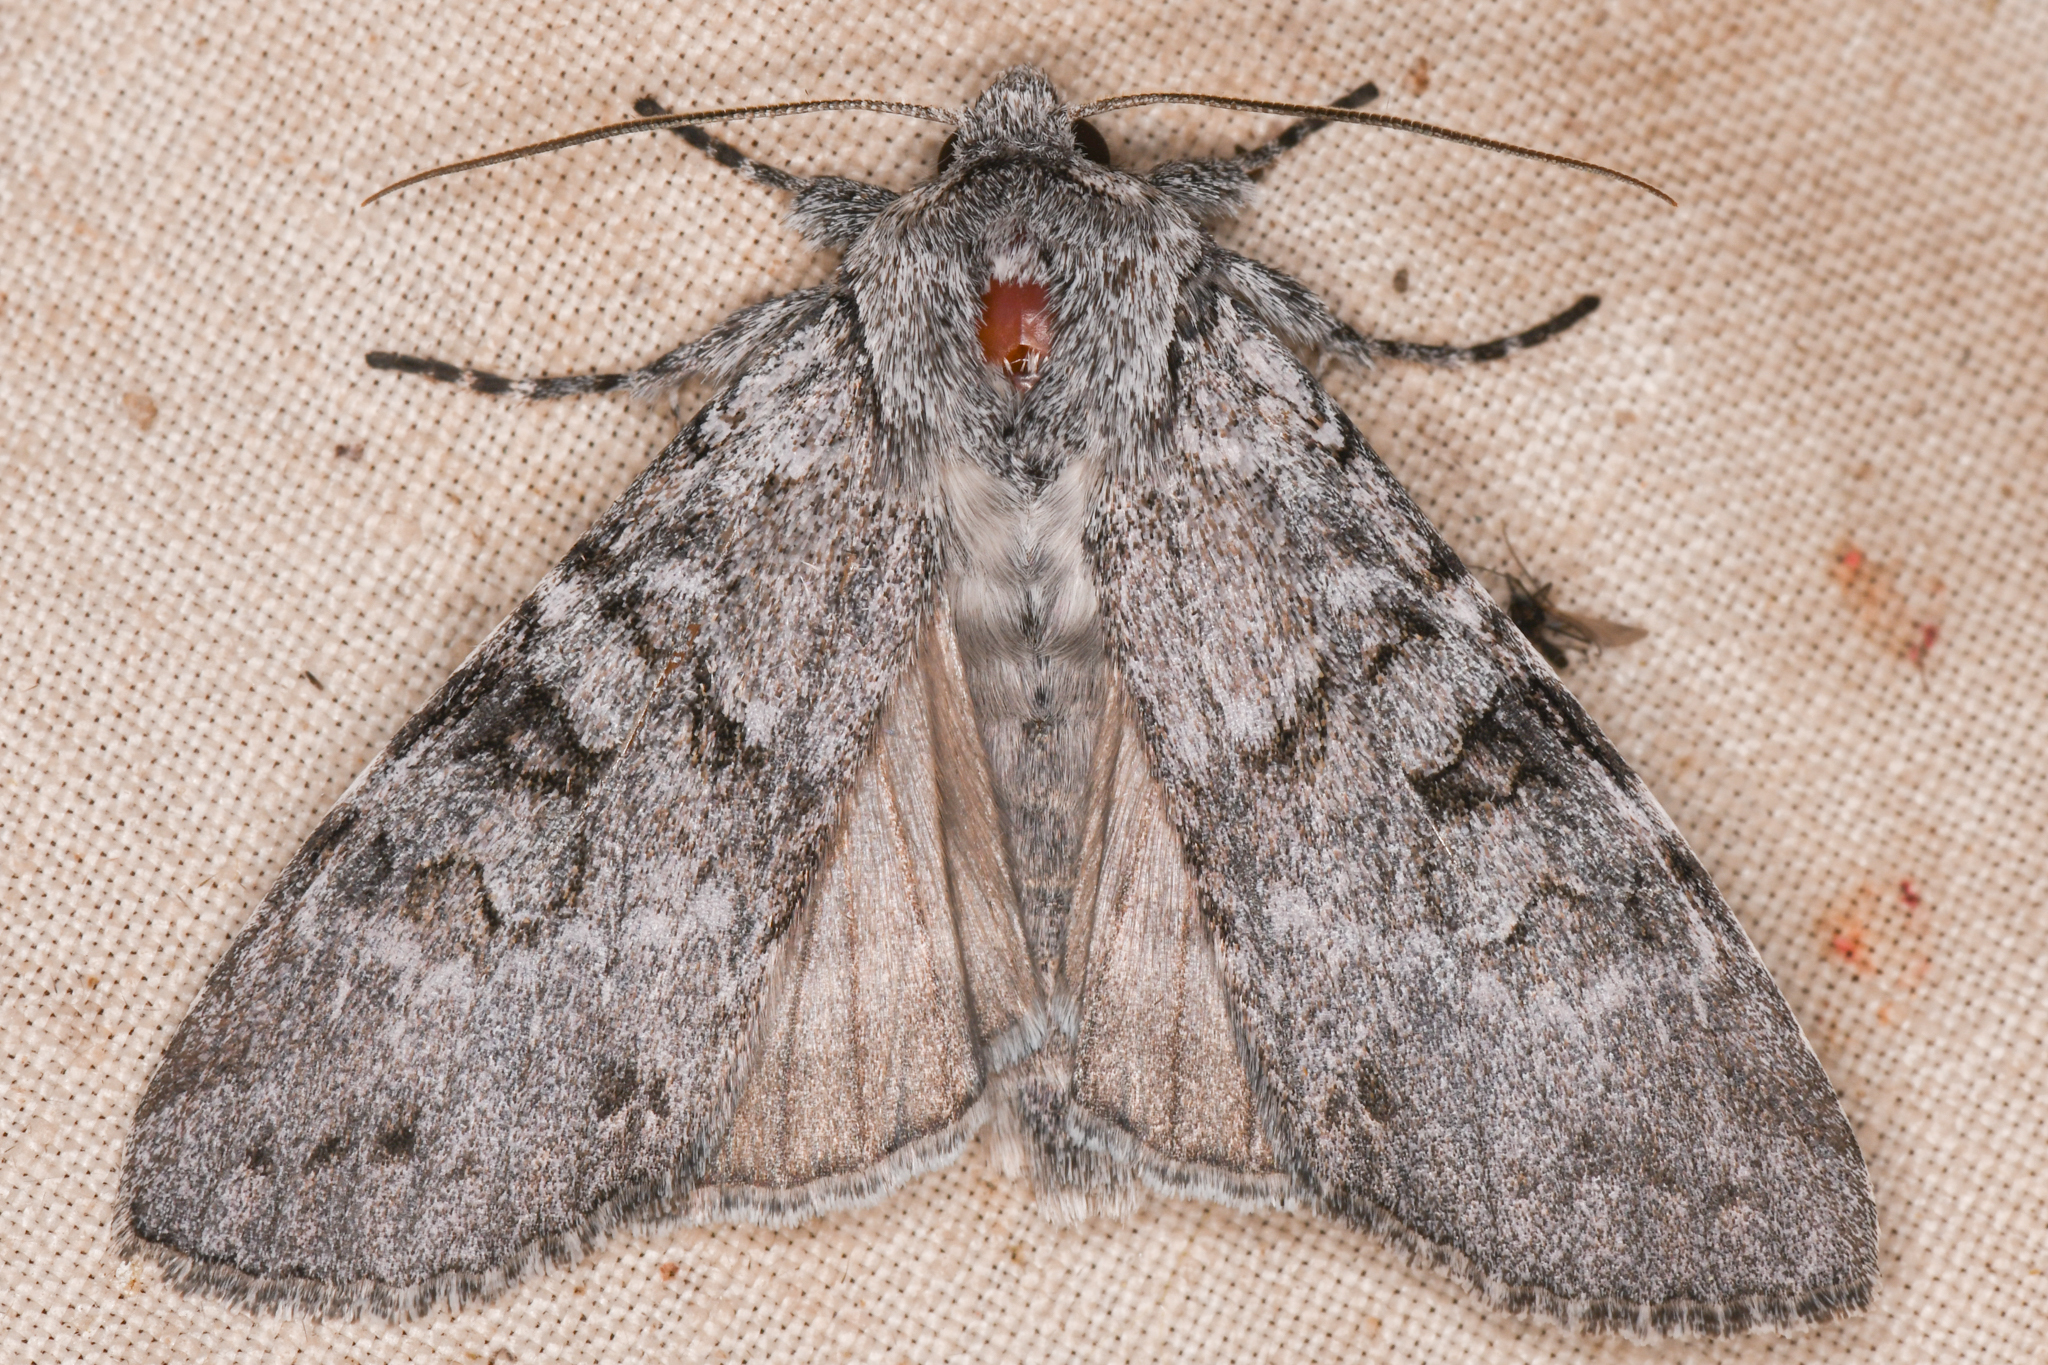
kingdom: Animalia
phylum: Arthropoda
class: Insecta
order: Lepidoptera
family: Noctuidae
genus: Polia
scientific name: Polia piniae
